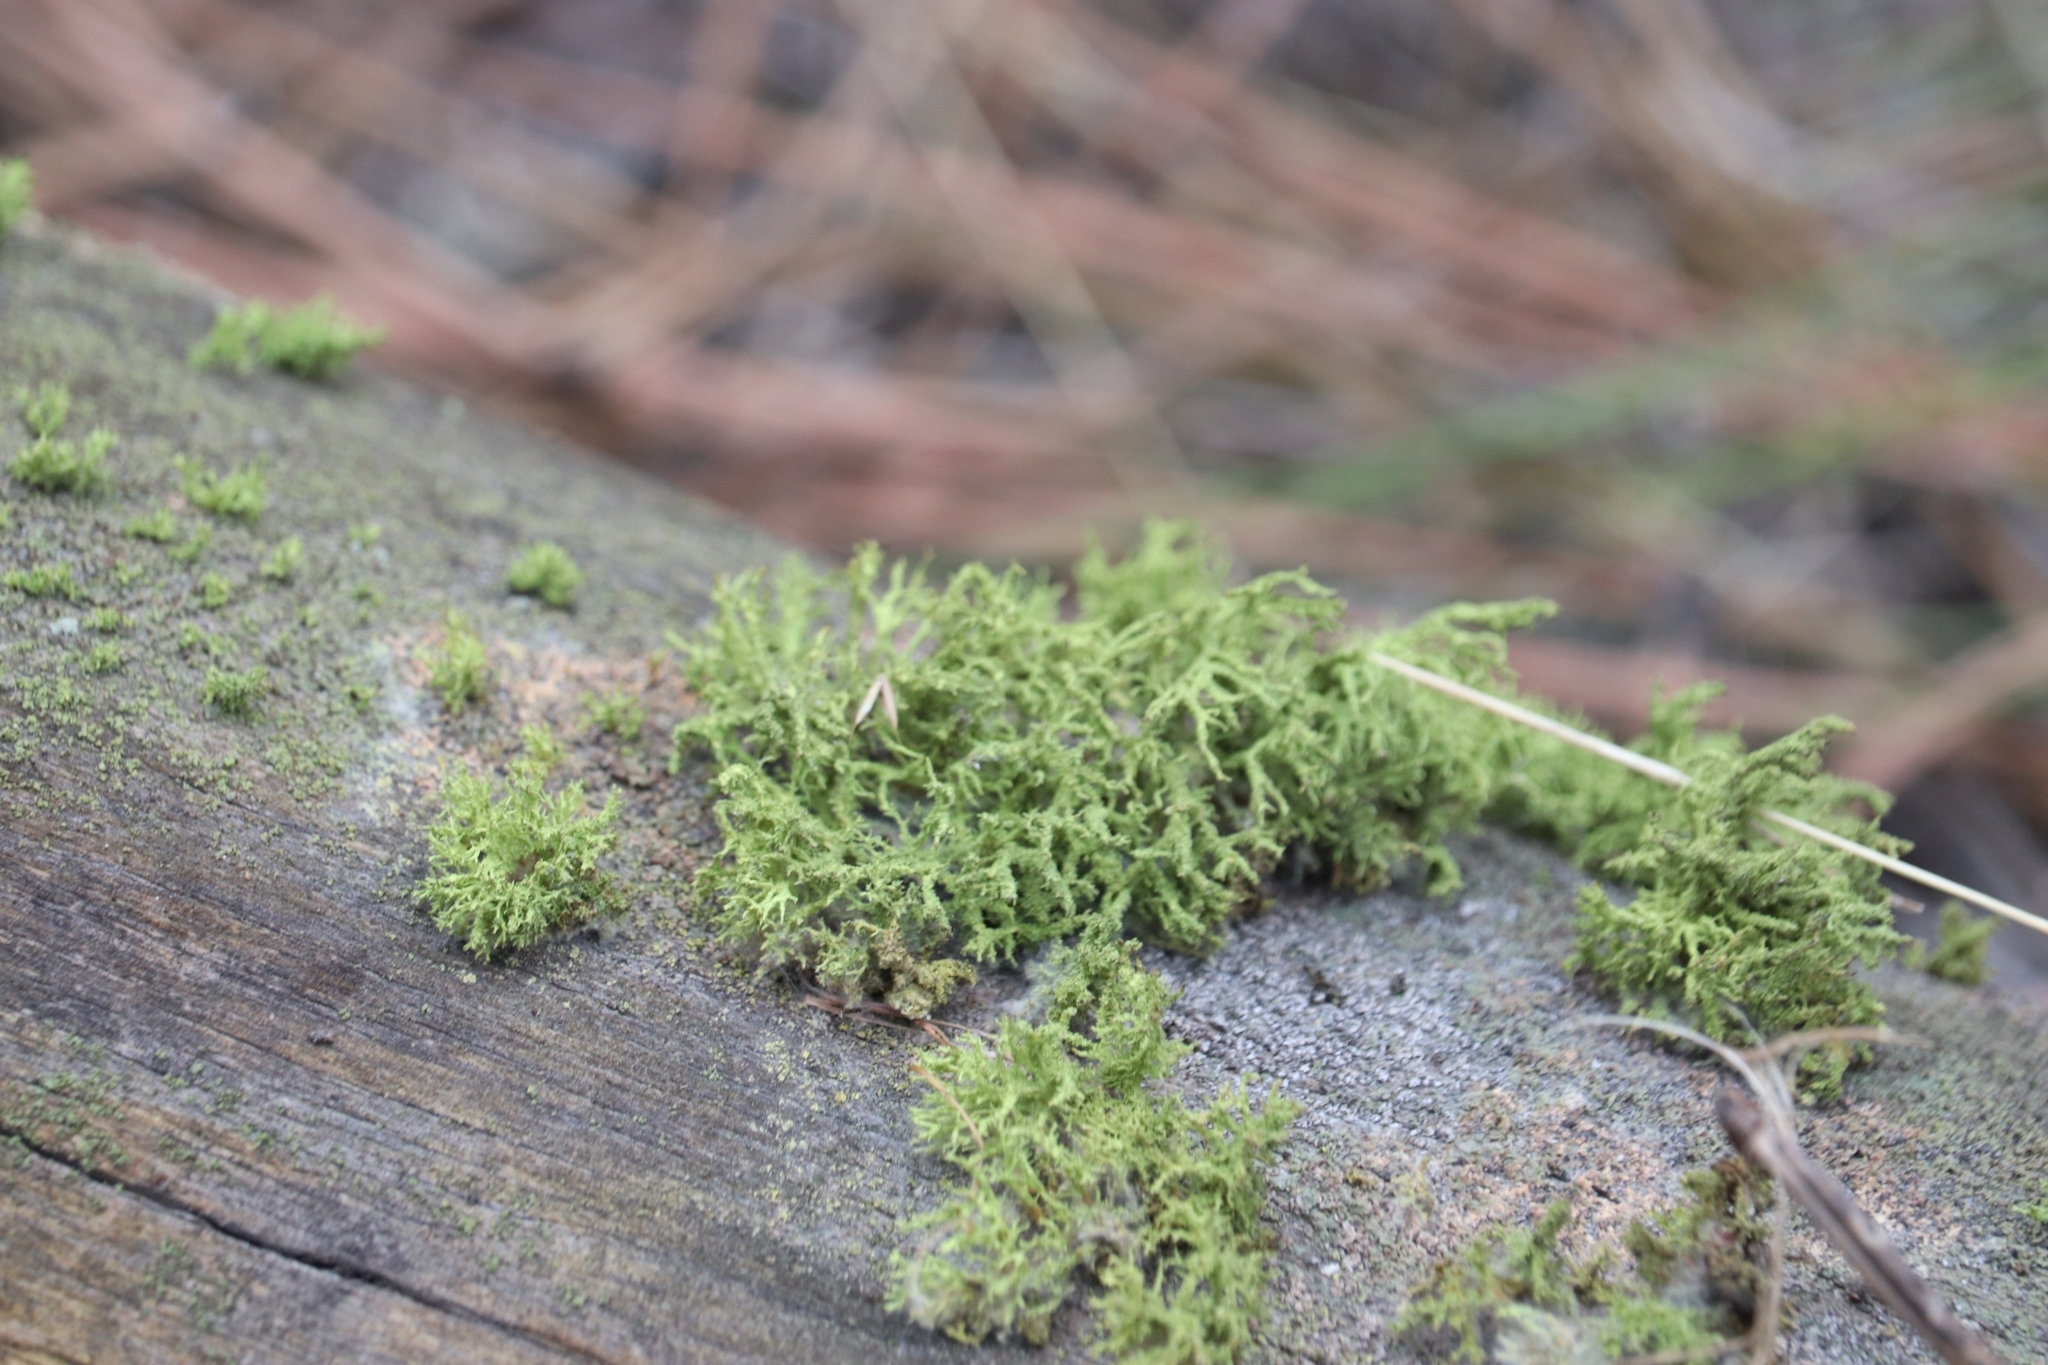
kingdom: Fungi
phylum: Ascomycota
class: Lecanoromycetes
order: Lecanorales
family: Parmeliaceae
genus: Letharia
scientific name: Letharia vulpina
